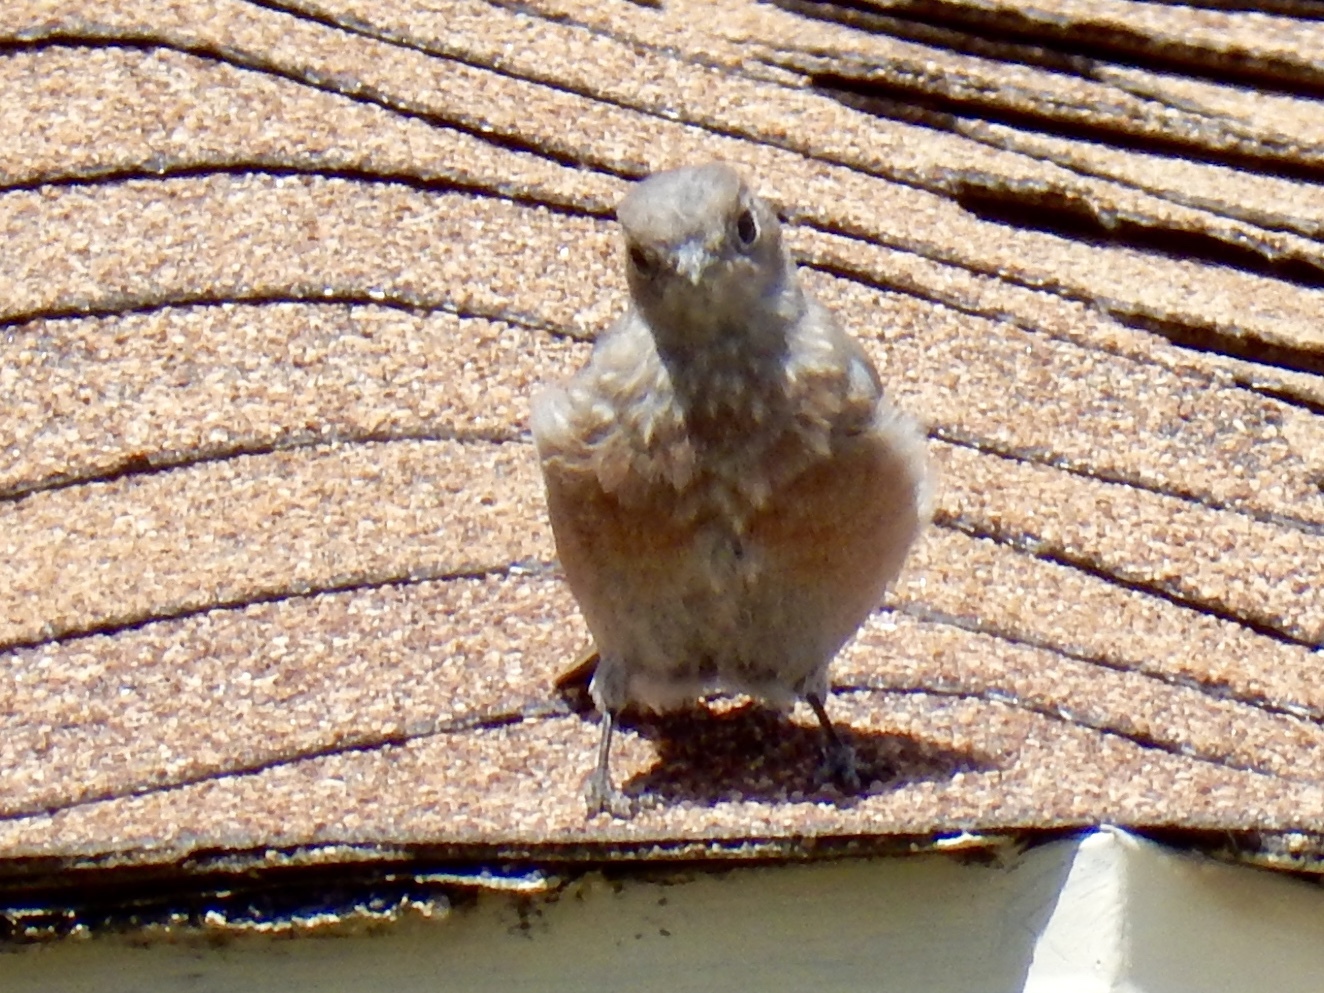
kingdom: Animalia
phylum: Chordata
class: Aves
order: Passeriformes
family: Turdidae
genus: Sialia
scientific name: Sialia mexicana
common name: Western bluebird
